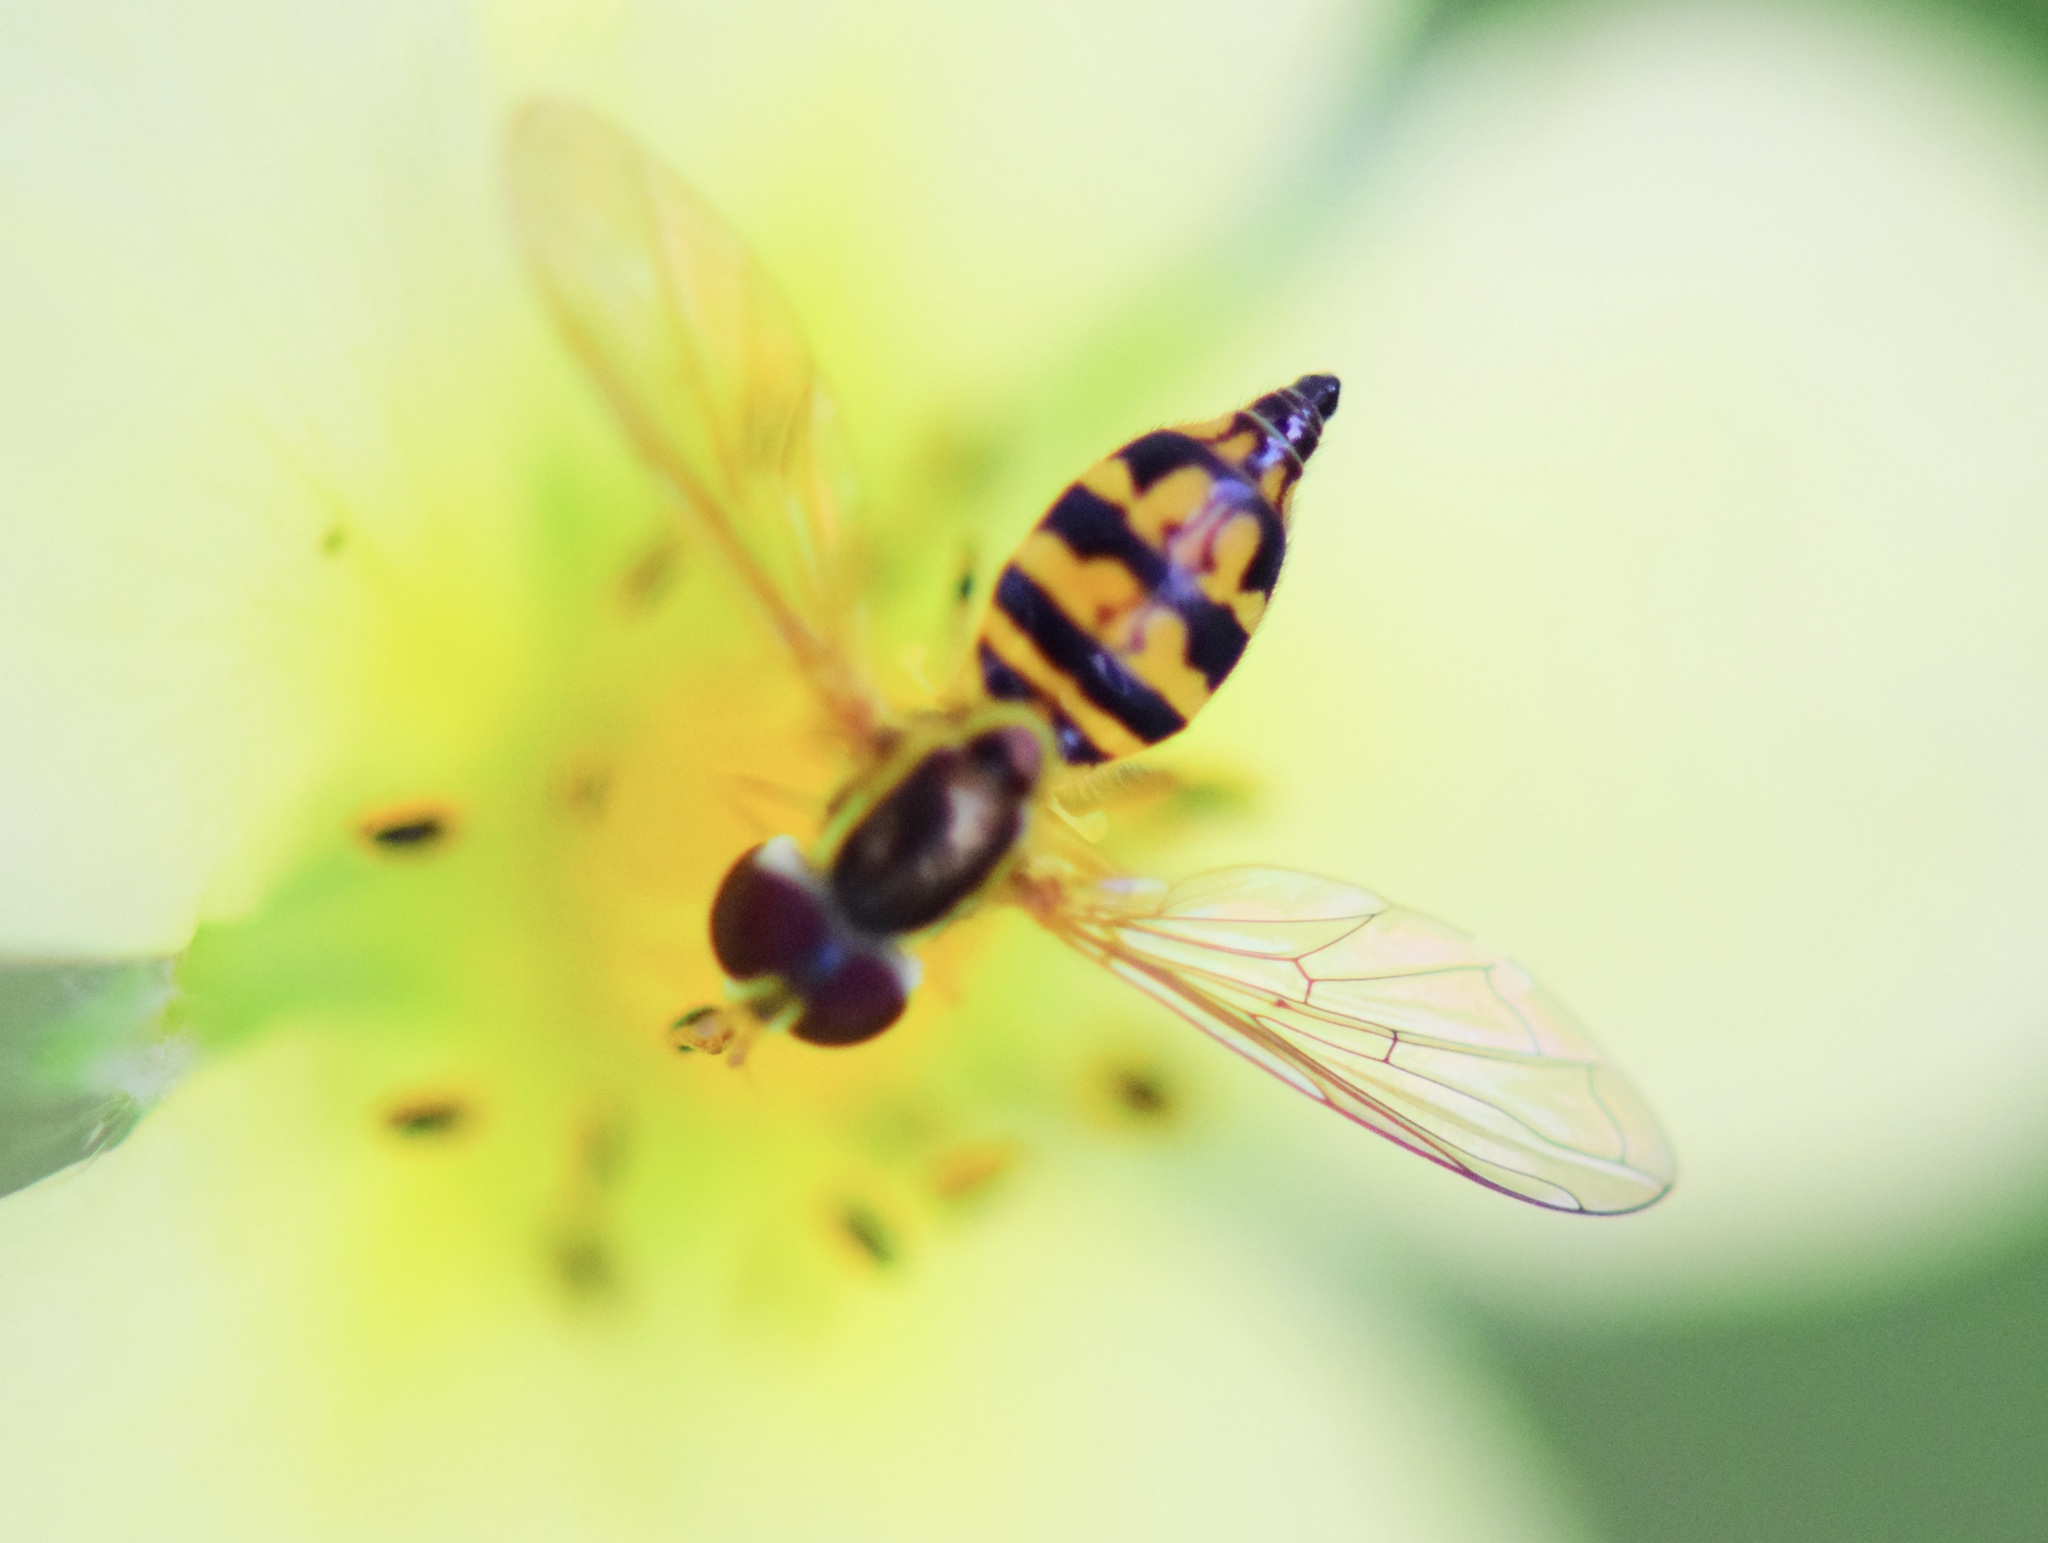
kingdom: Animalia
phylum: Arthropoda
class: Insecta
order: Diptera
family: Syrphidae
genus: Toxomerus
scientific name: Toxomerus geminatus
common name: Eastern calligrapher
